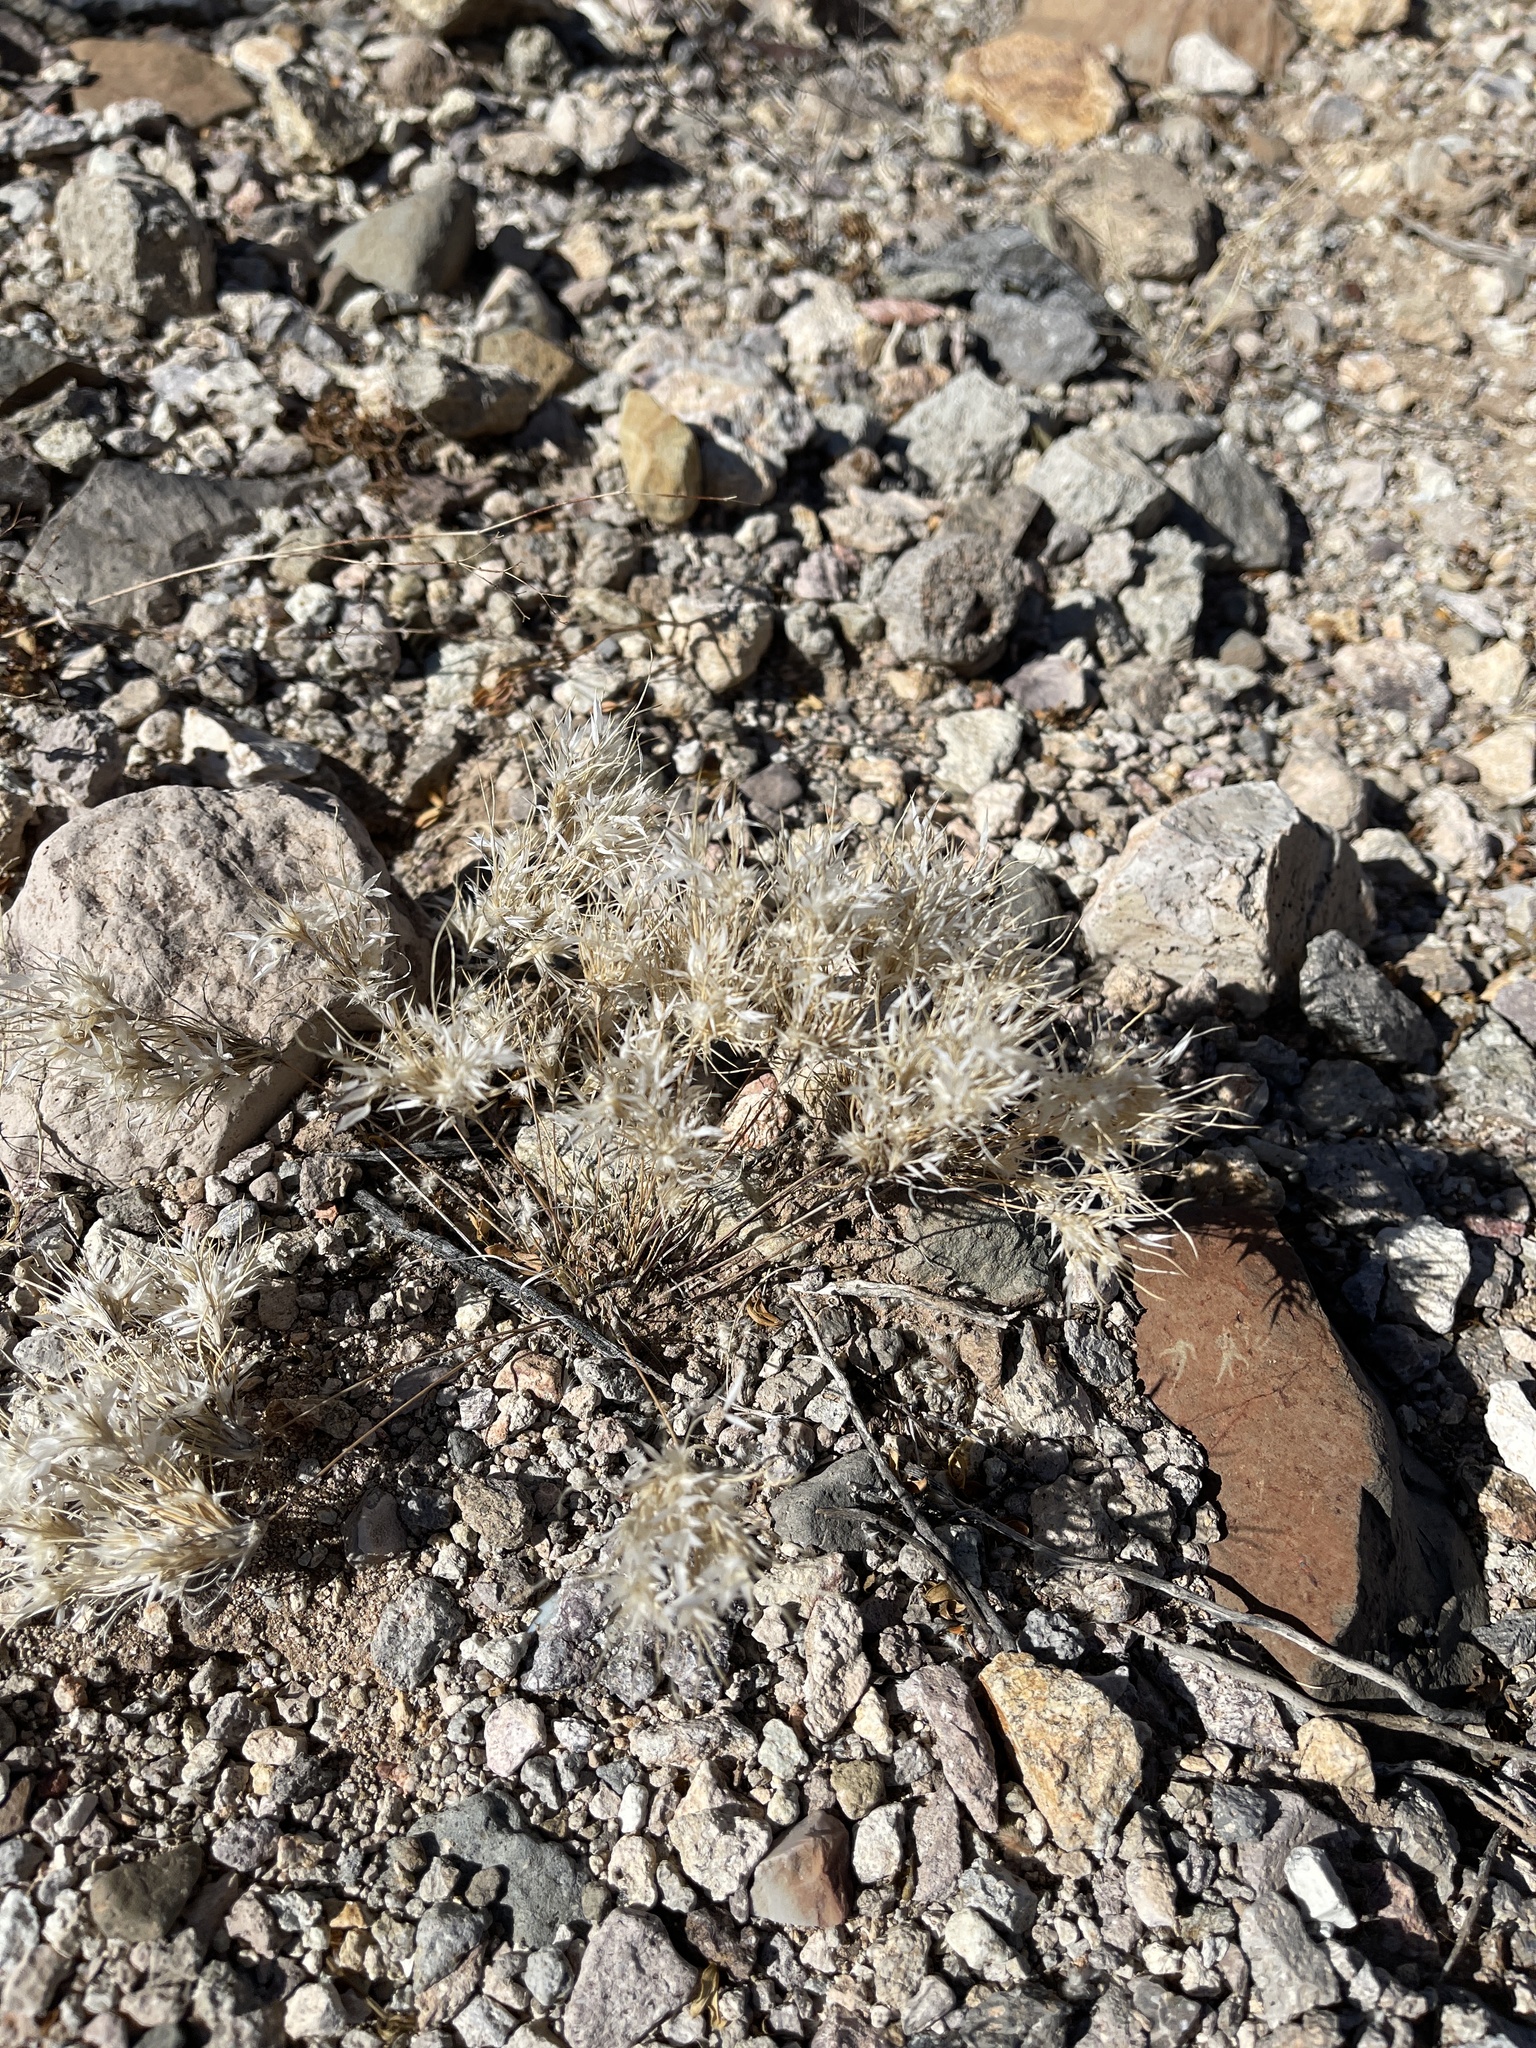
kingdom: Plantae
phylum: Tracheophyta
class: Liliopsida
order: Poales
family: Poaceae
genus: Dasyochloa
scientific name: Dasyochloa pulchella
